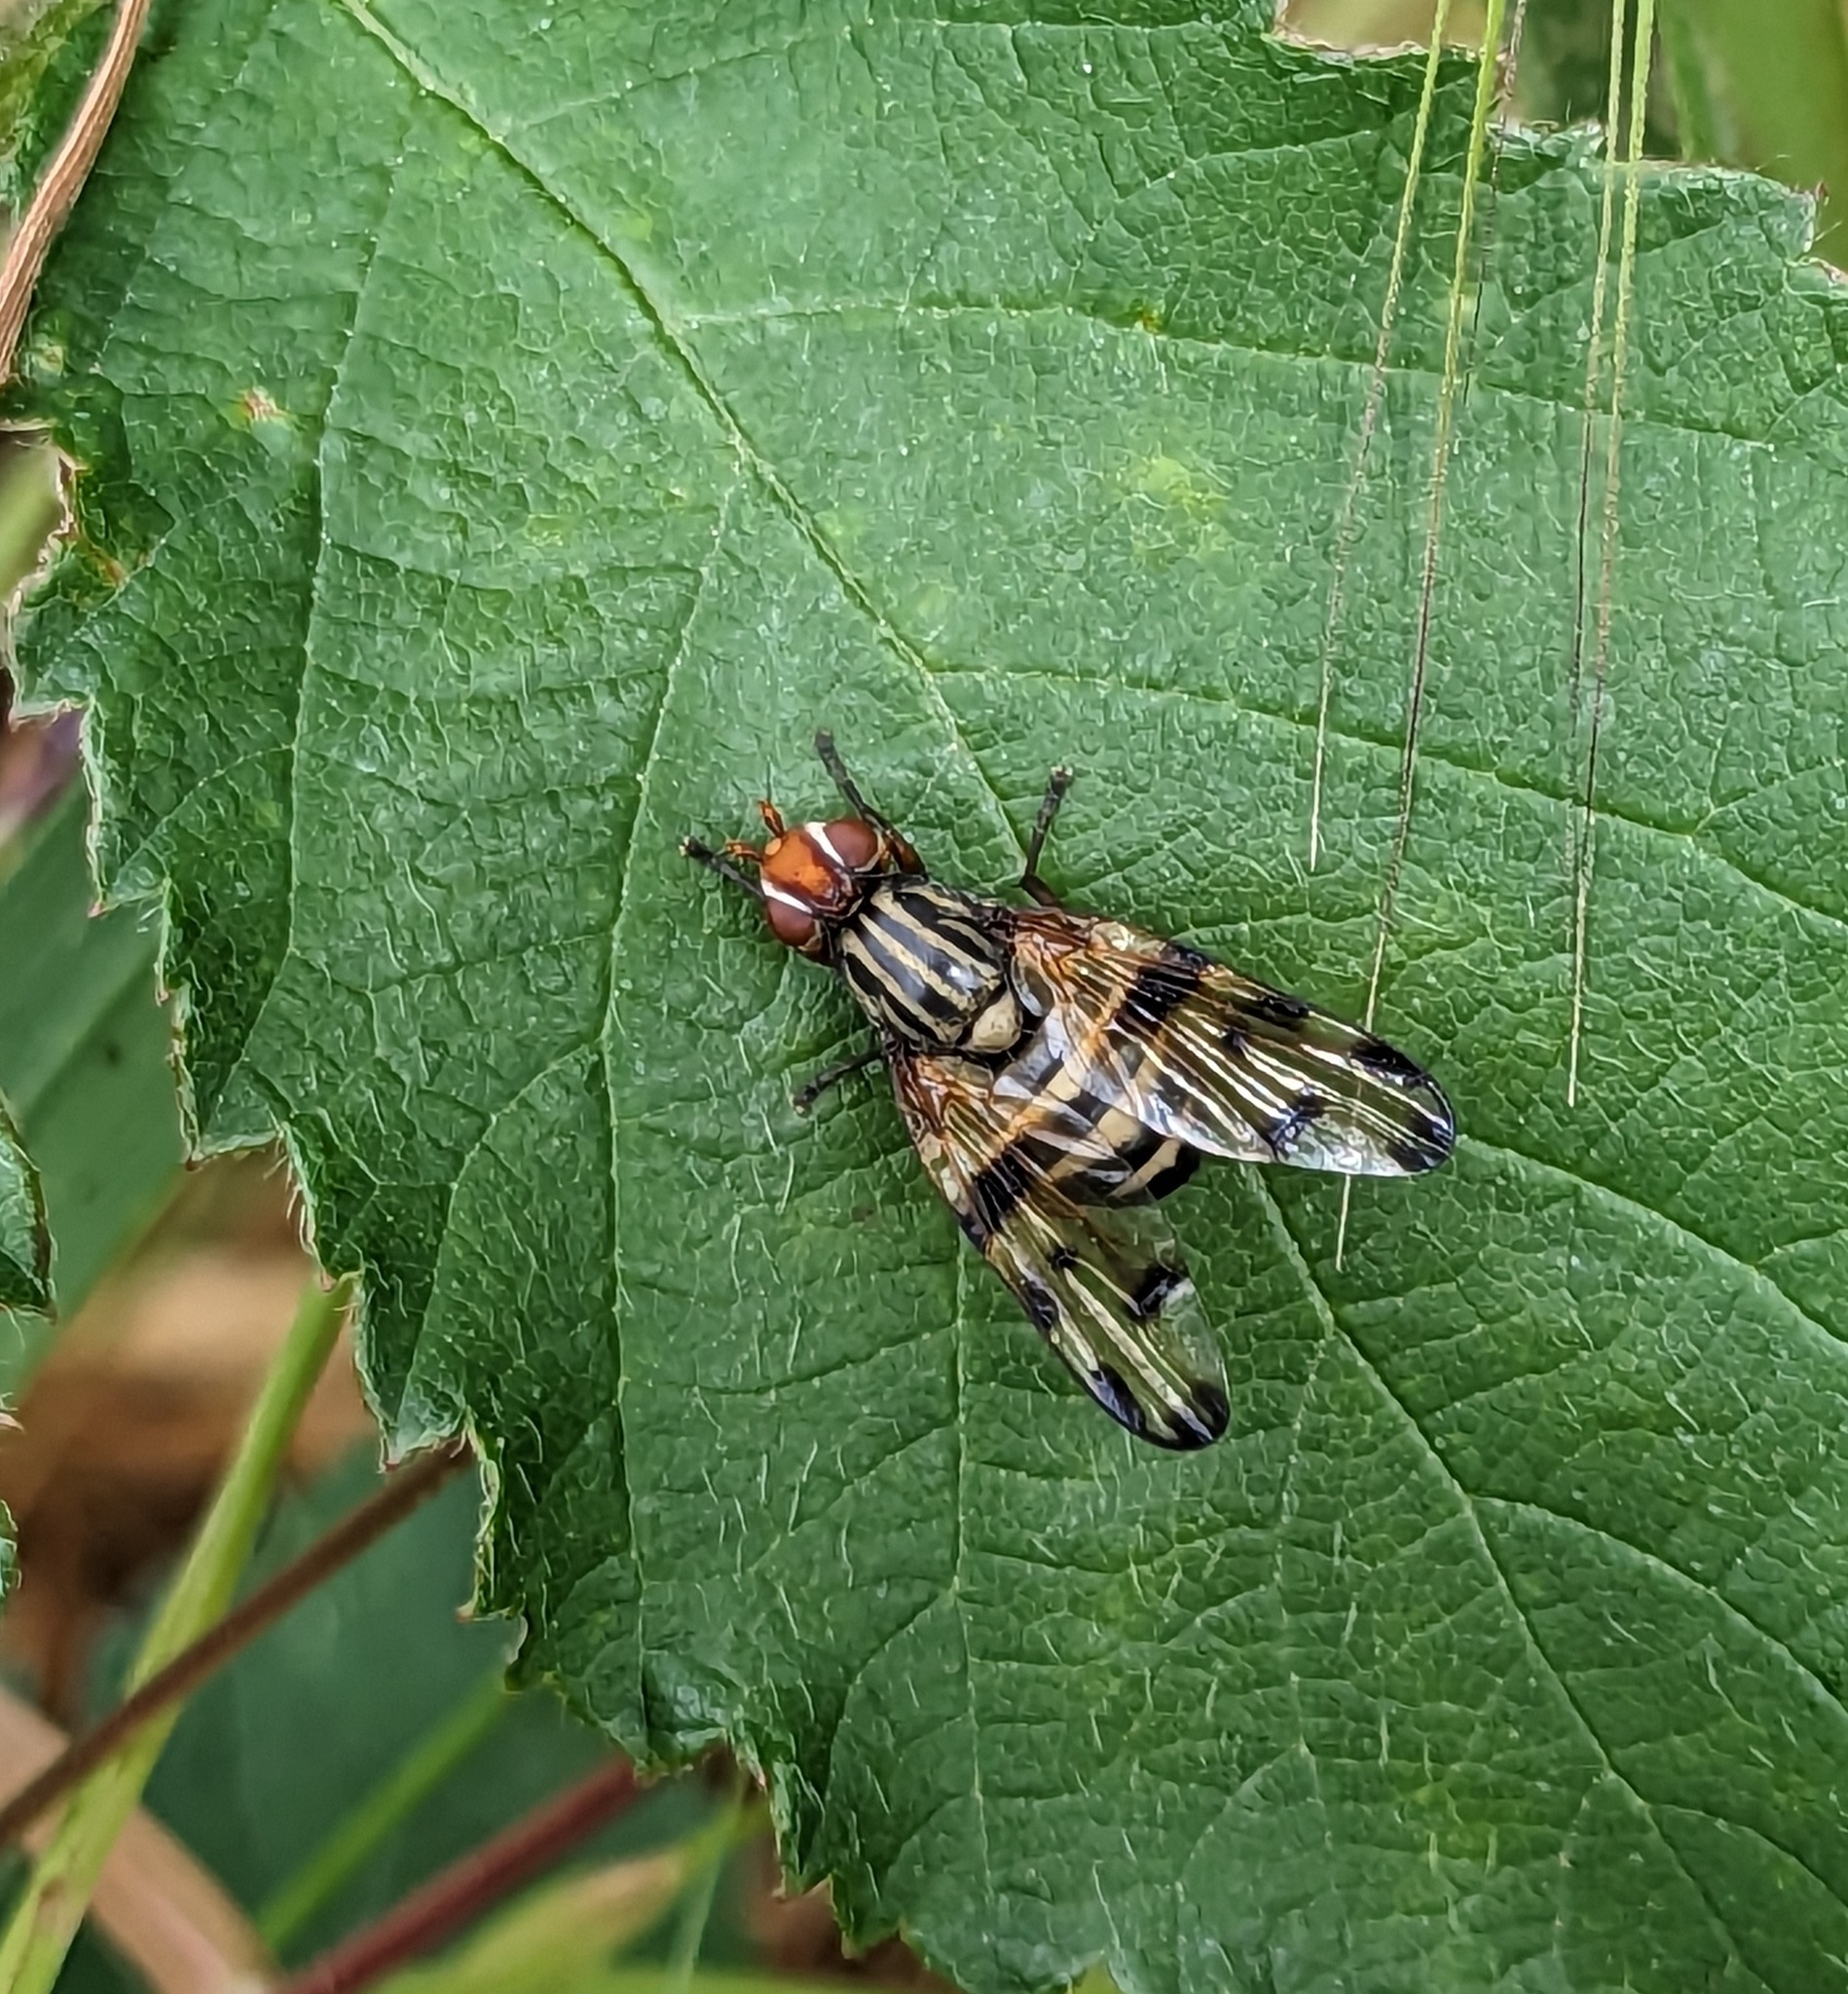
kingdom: Animalia
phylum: Arthropoda
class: Insecta
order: Diptera
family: Ulidiidae
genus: Otites
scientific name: Otites porcus
